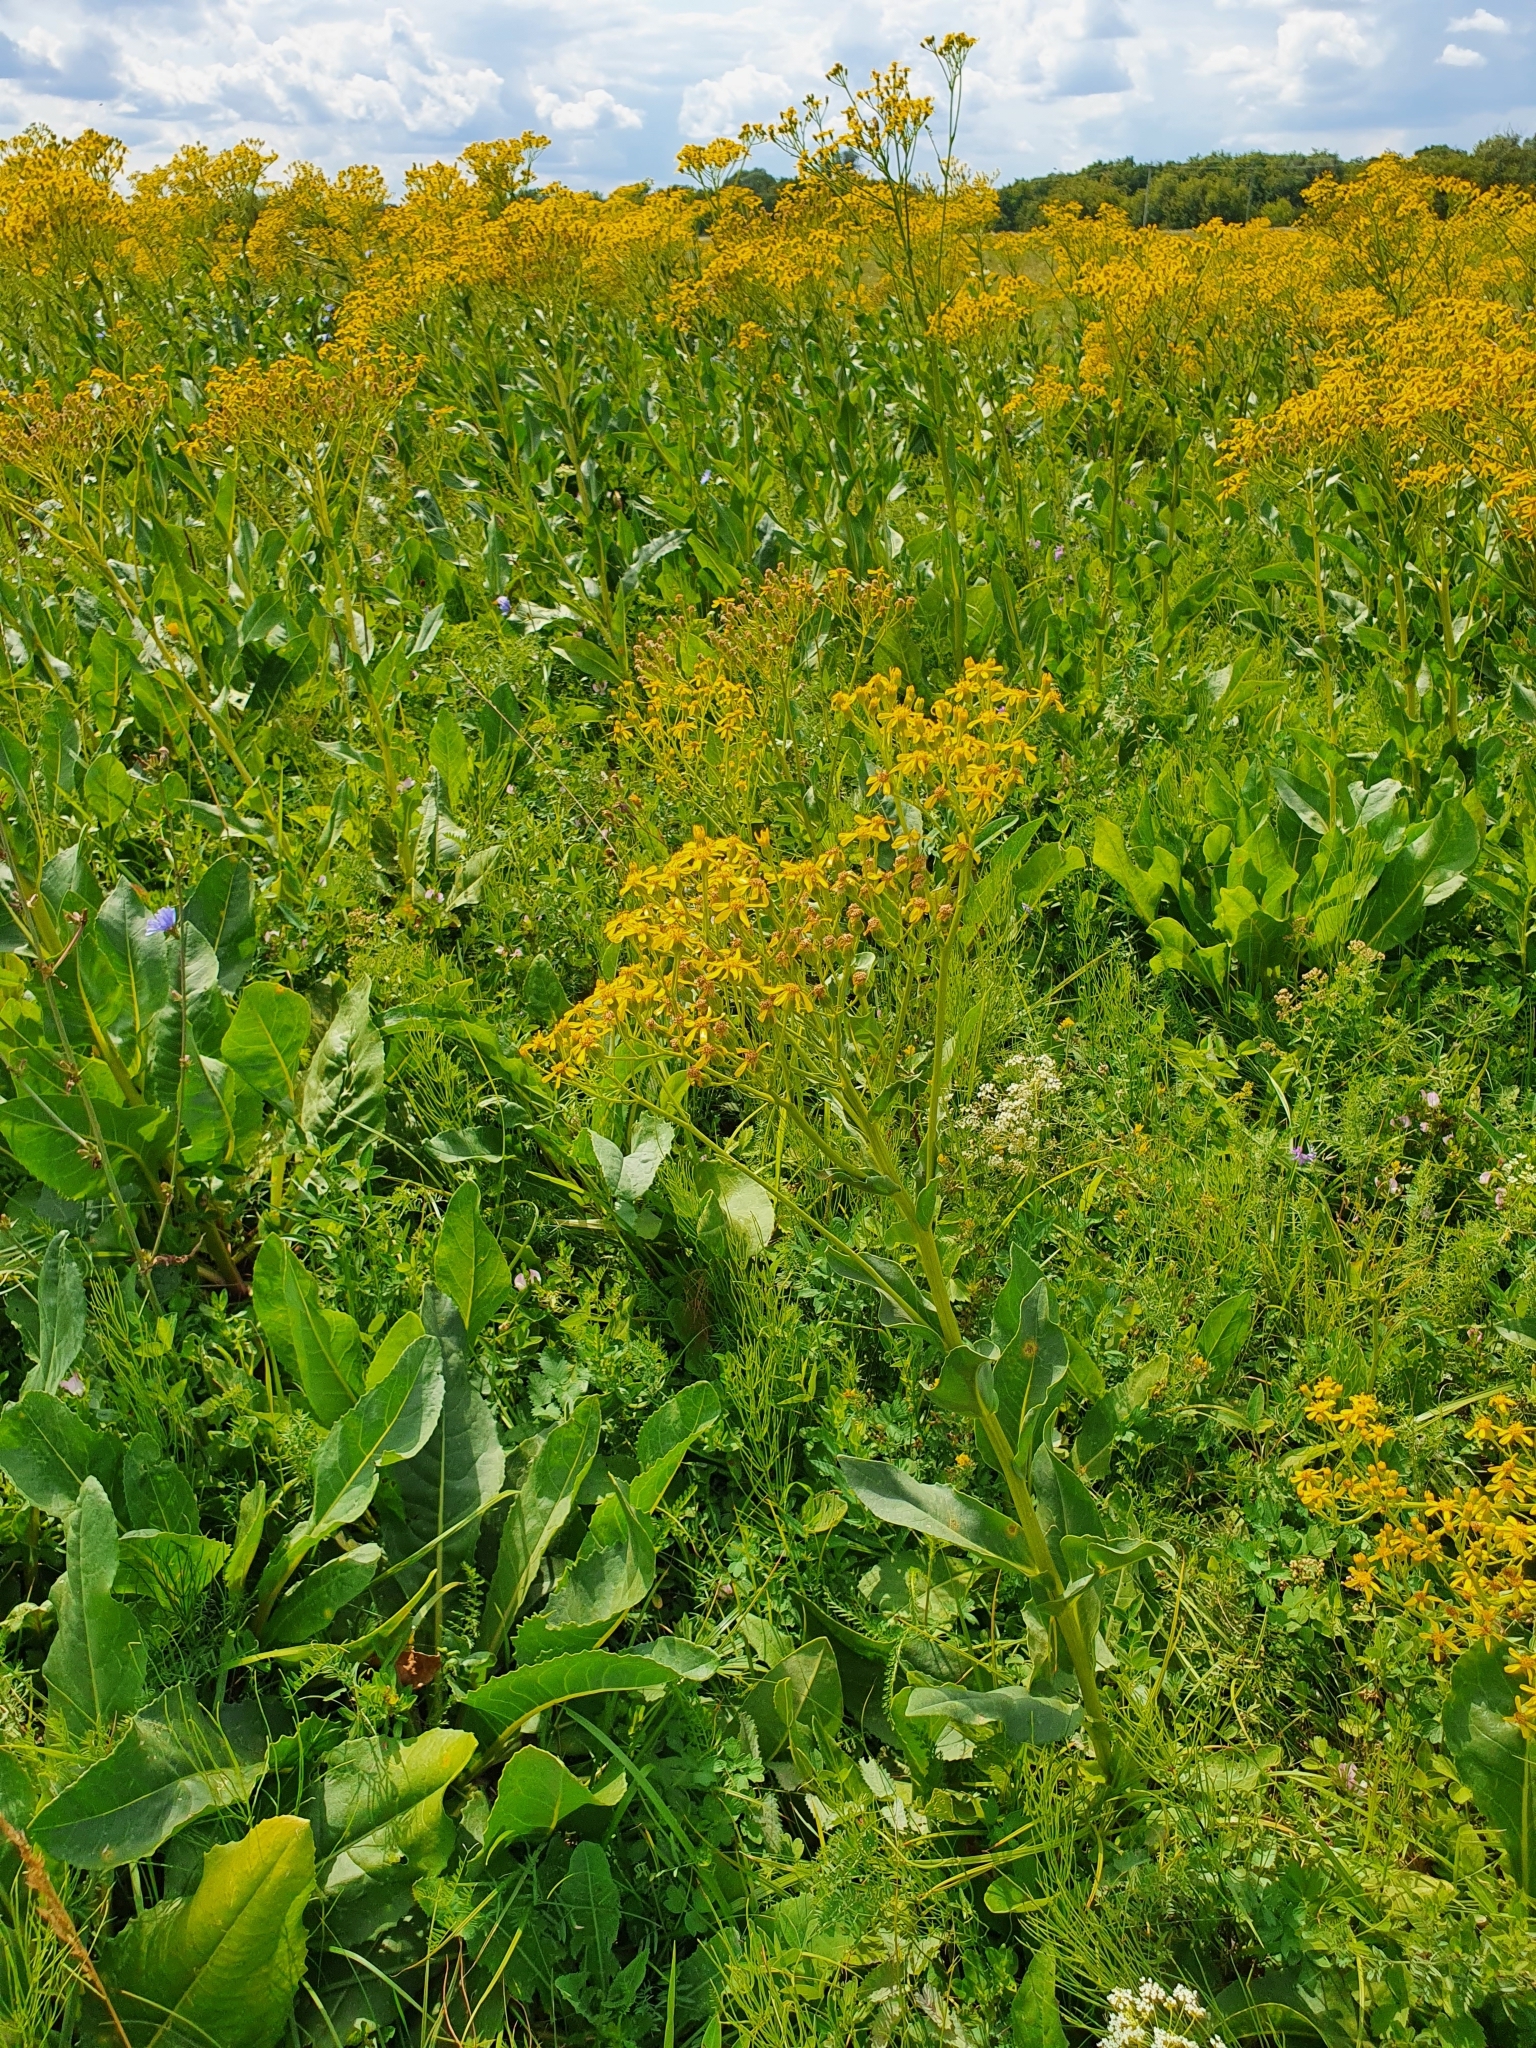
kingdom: Plantae
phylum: Tracheophyta
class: Magnoliopsida
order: Asterales
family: Asteraceae
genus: Senecio
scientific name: Senecio doria
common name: Golden ragwort
